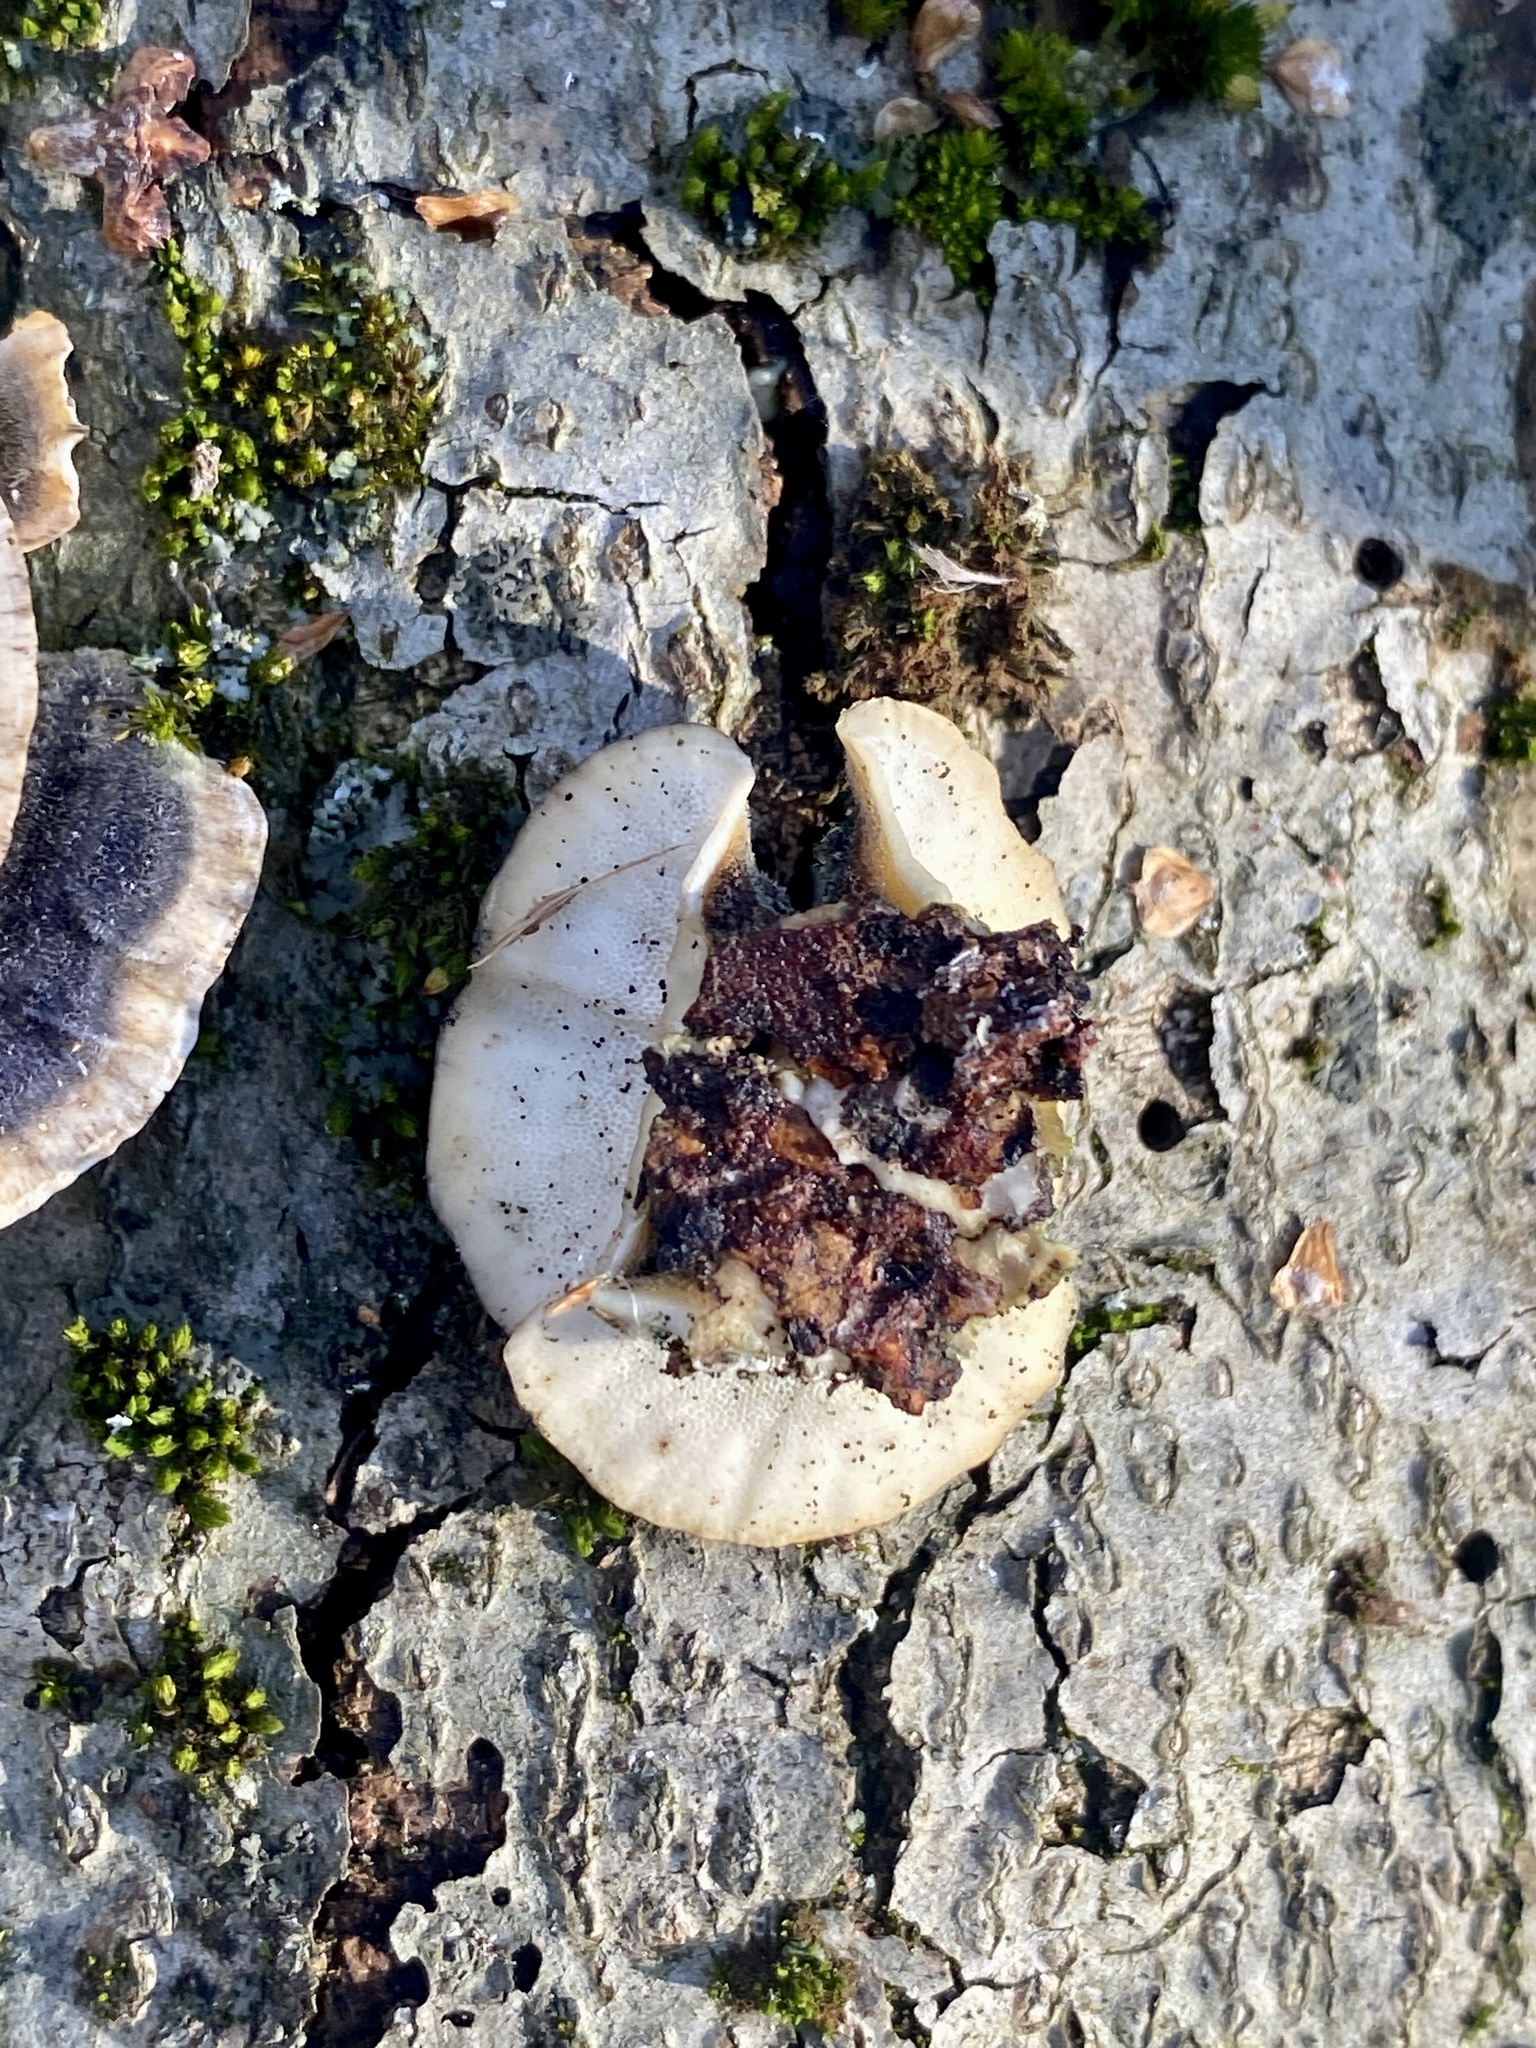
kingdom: Fungi
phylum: Basidiomycota
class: Agaricomycetes
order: Polyporales
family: Polyporaceae
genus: Trametes
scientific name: Trametes versicolor
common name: Turkeytail
